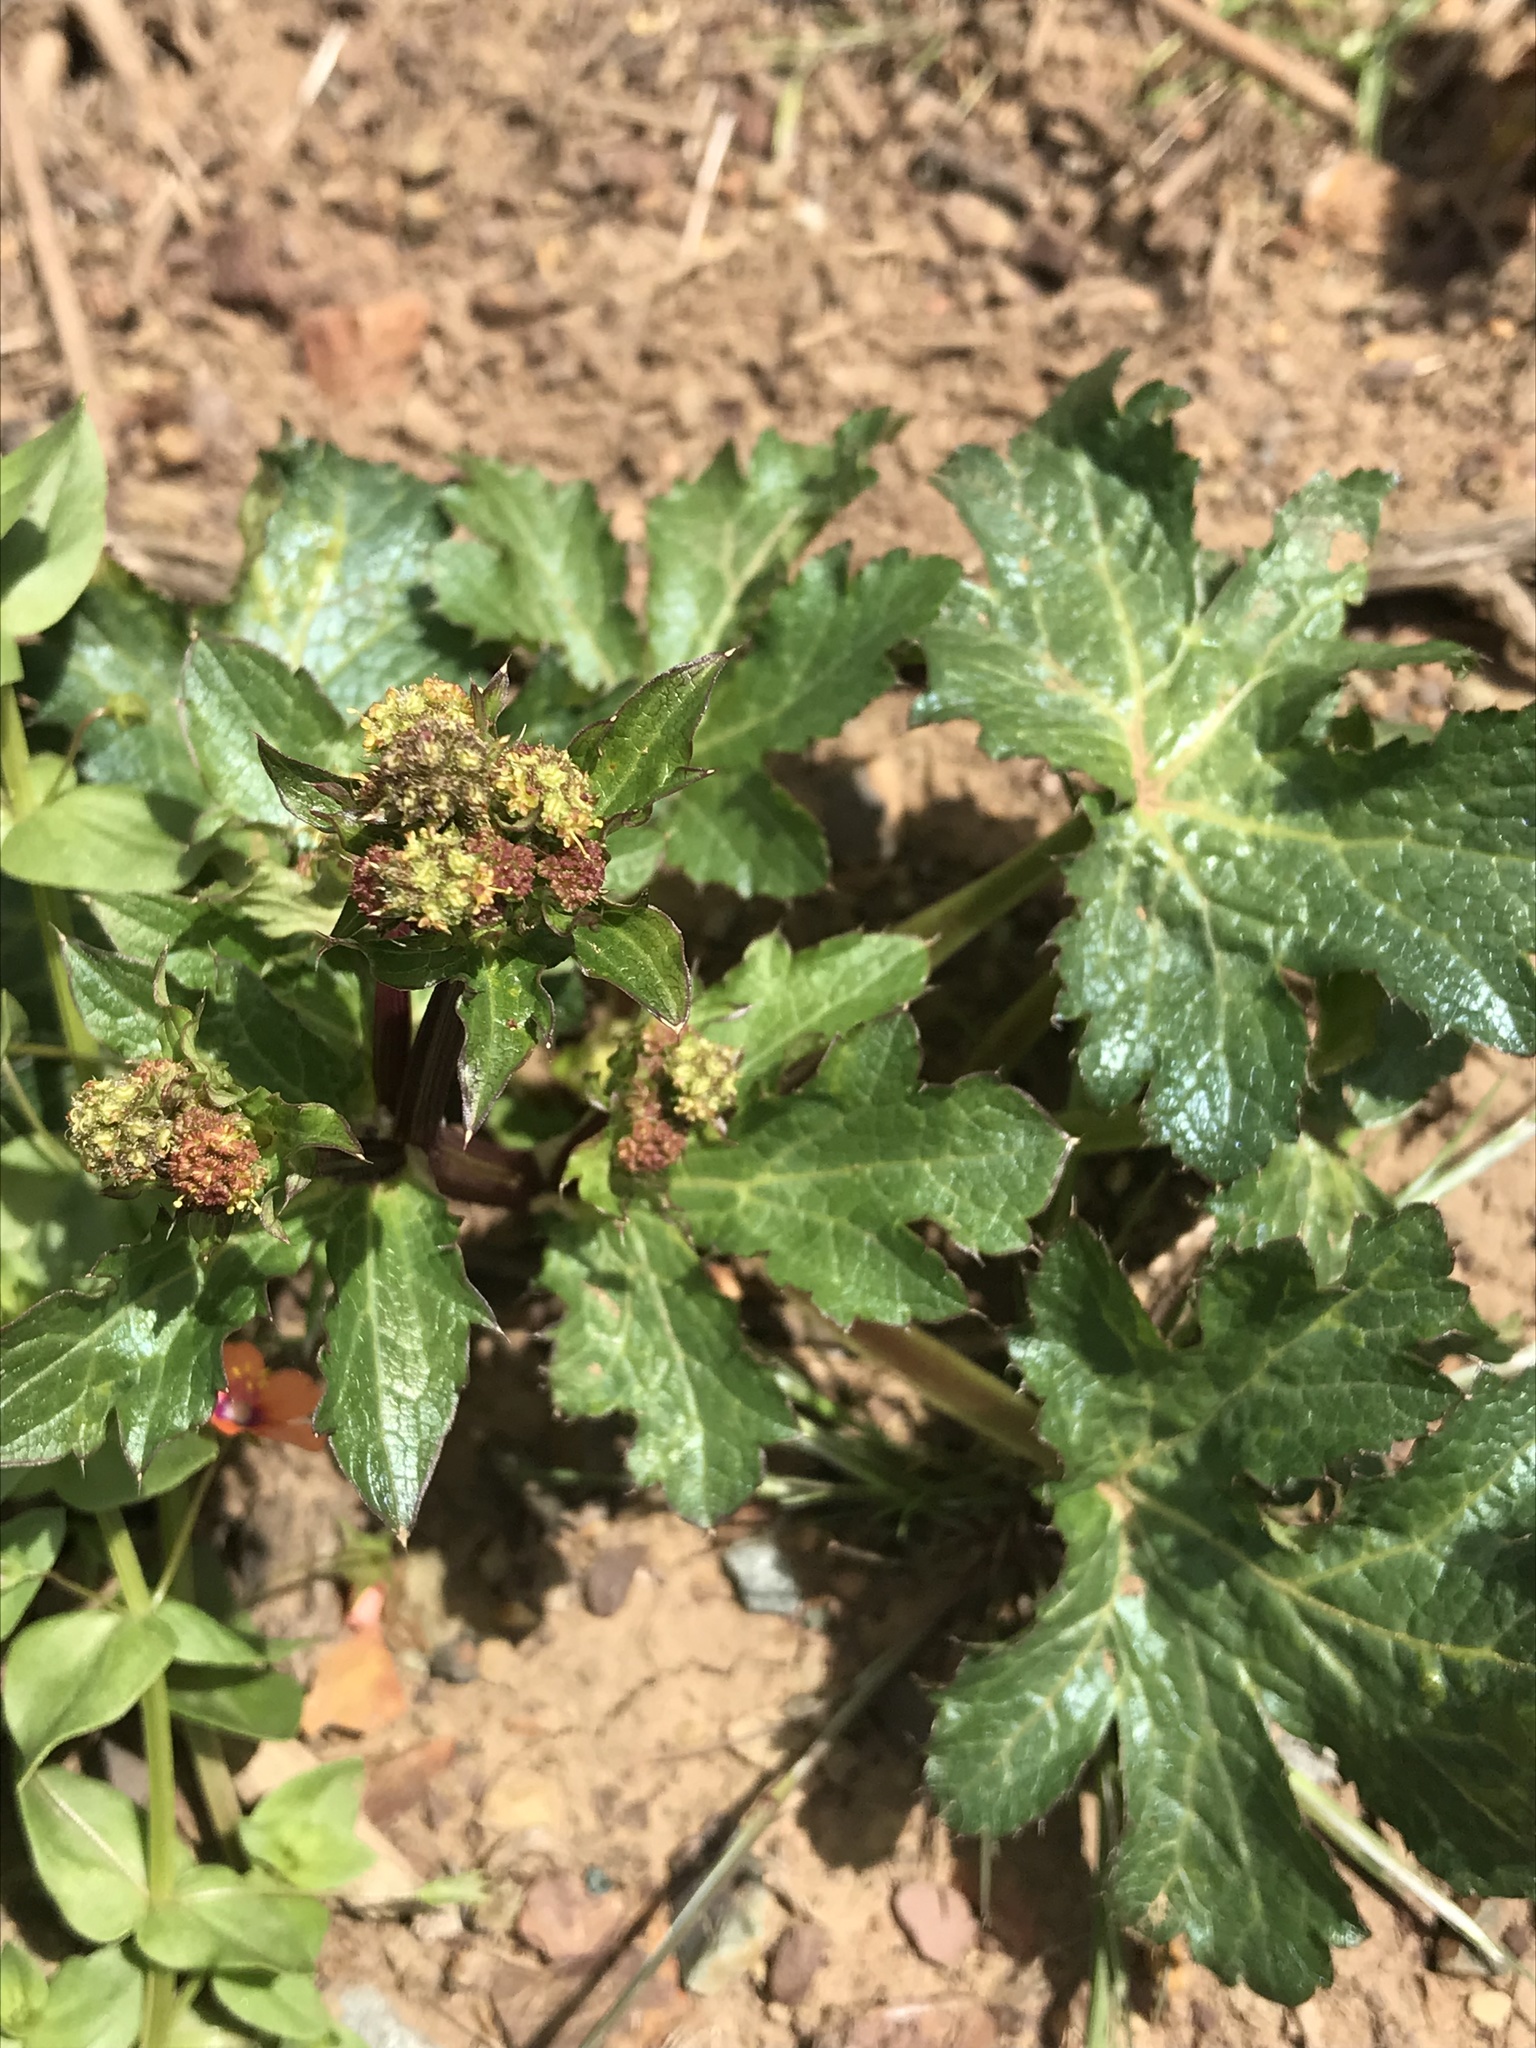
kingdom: Plantae
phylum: Tracheophyta
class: Magnoliopsida
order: Apiales
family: Apiaceae
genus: Sanicula
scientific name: Sanicula crassicaulis
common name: Western snakeroot
